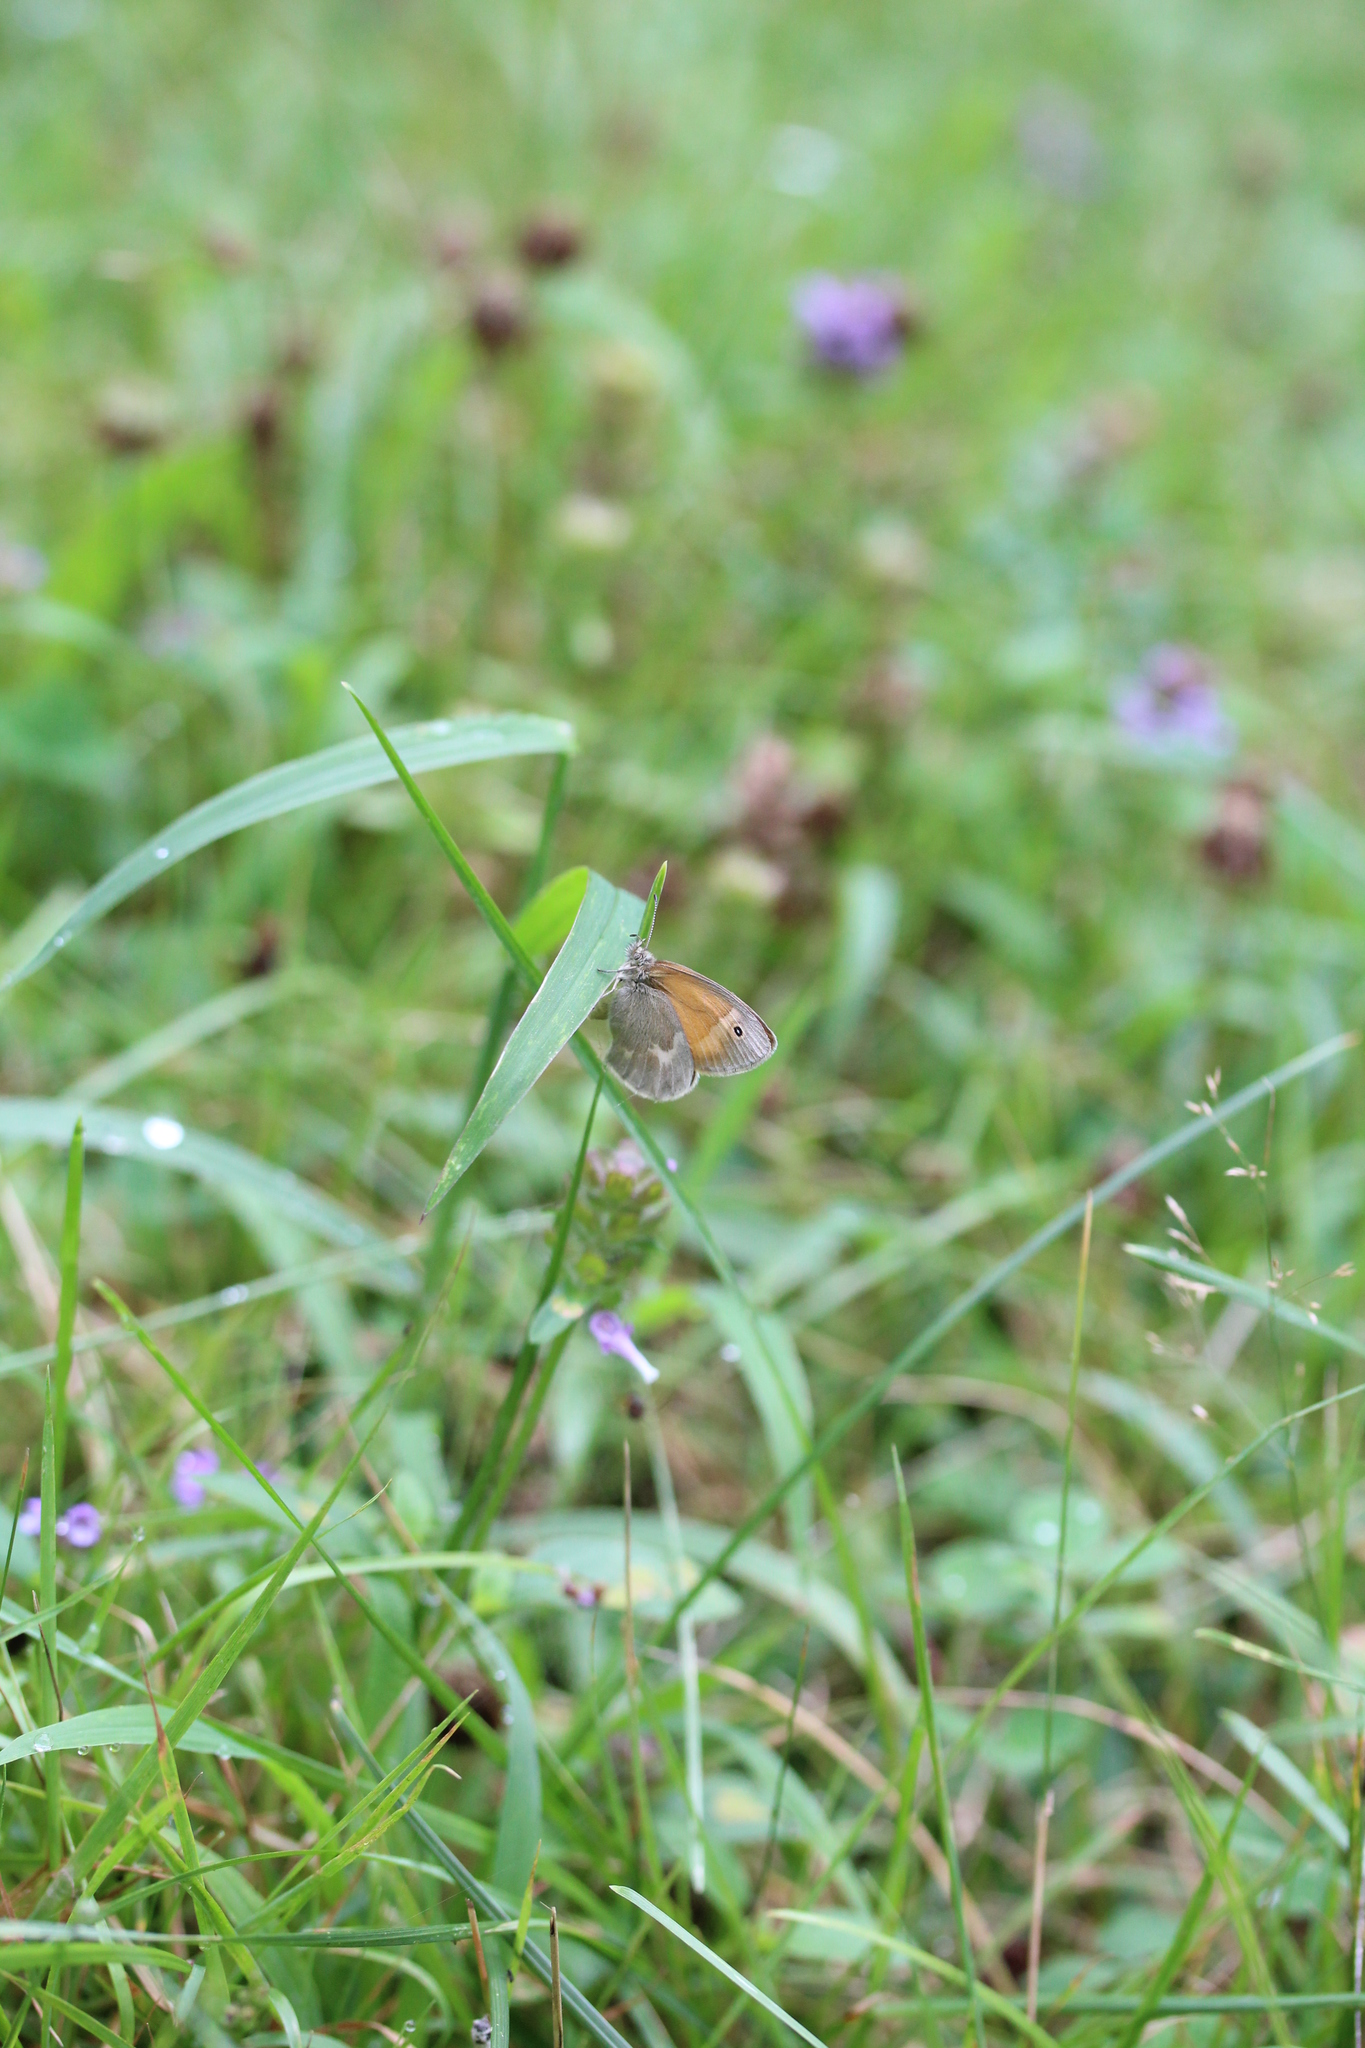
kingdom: Animalia
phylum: Arthropoda
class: Insecta
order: Lepidoptera
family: Nymphalidae
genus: Coenonympha
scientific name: Coenonympha california
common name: Common ringlet
